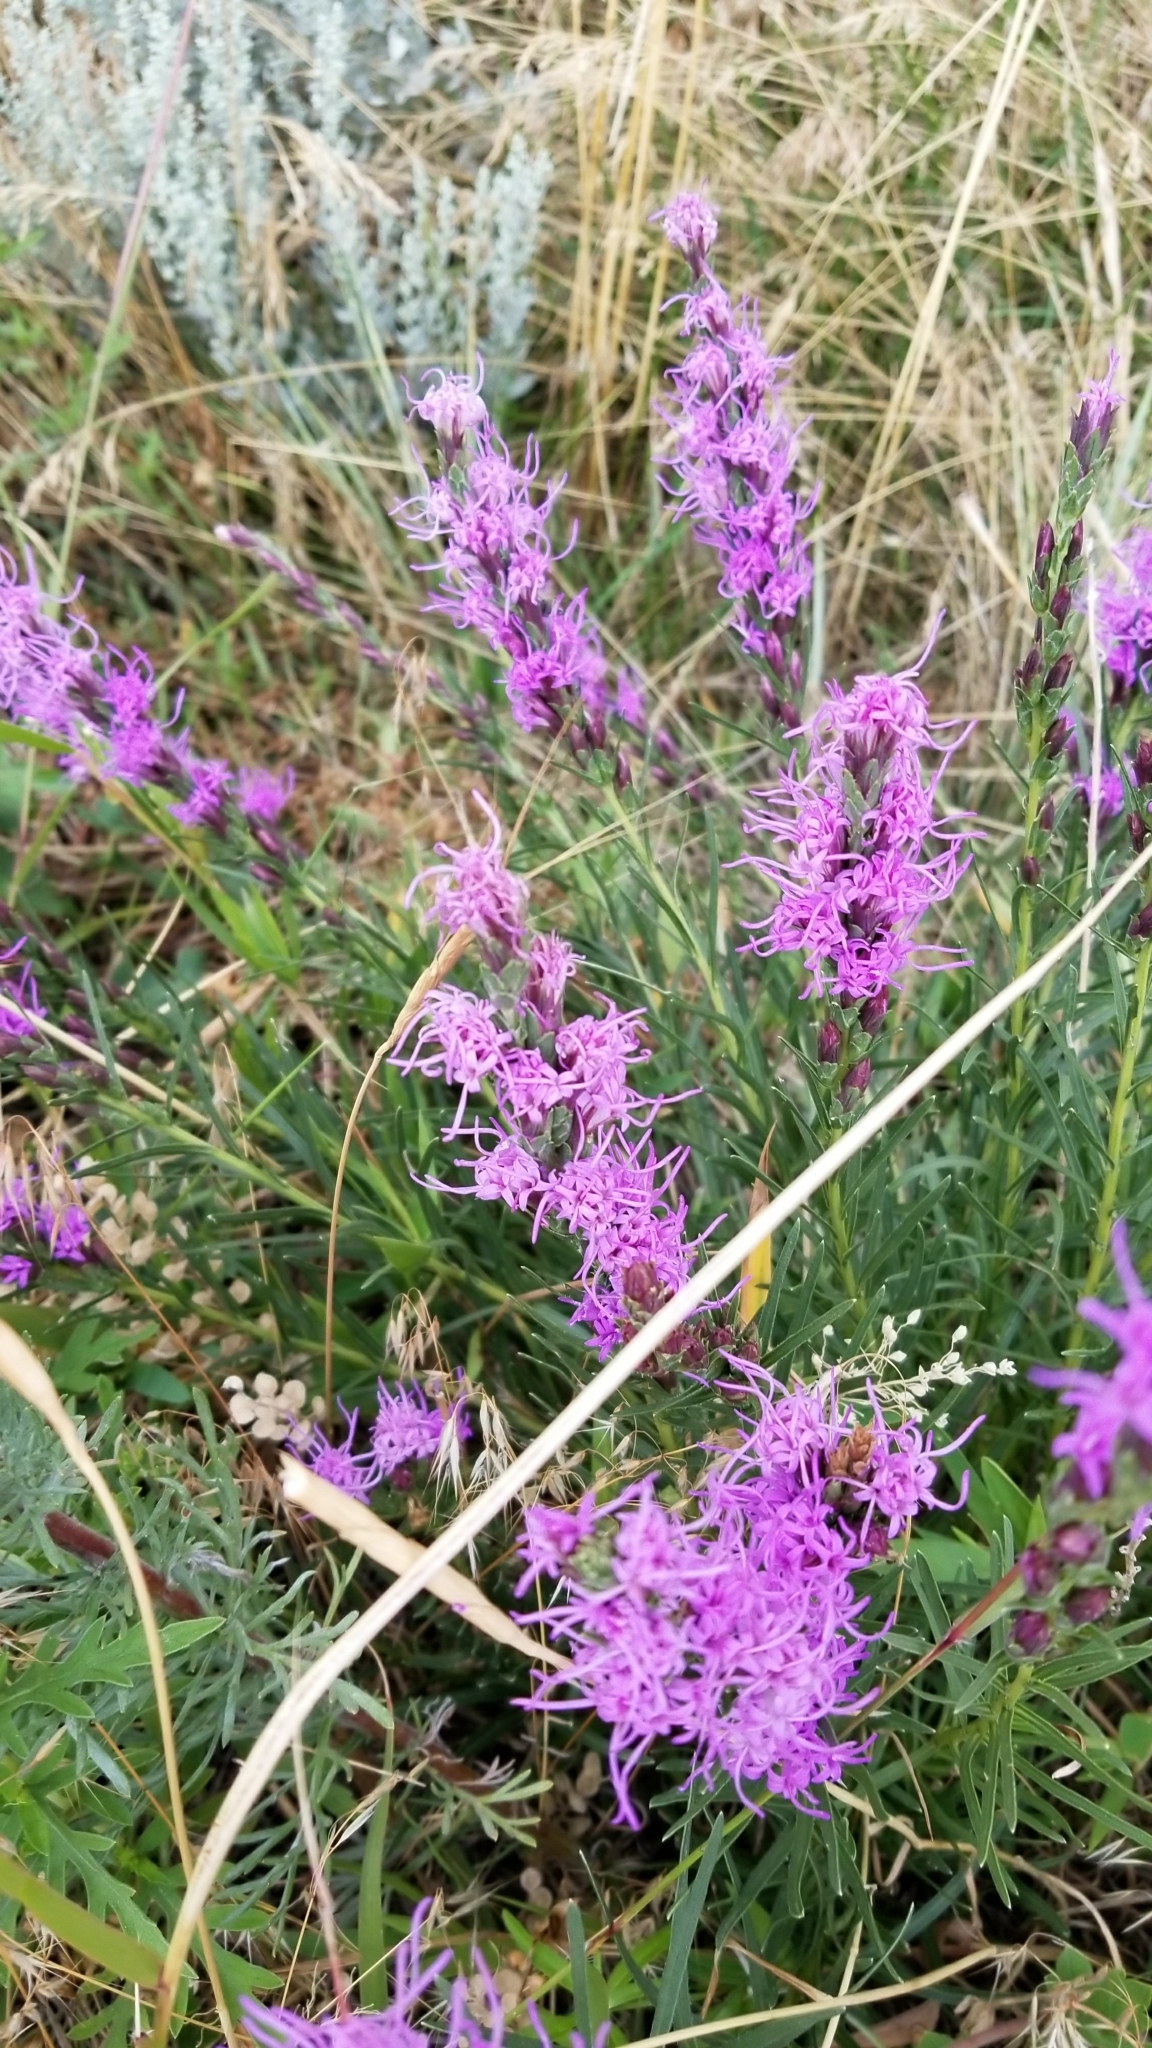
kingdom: Plantae
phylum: Tracheophyta
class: Magnoliopsida
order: Asterales
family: Asteraceae
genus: Liatris
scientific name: Liatris punctata
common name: Dotted gayfeather
